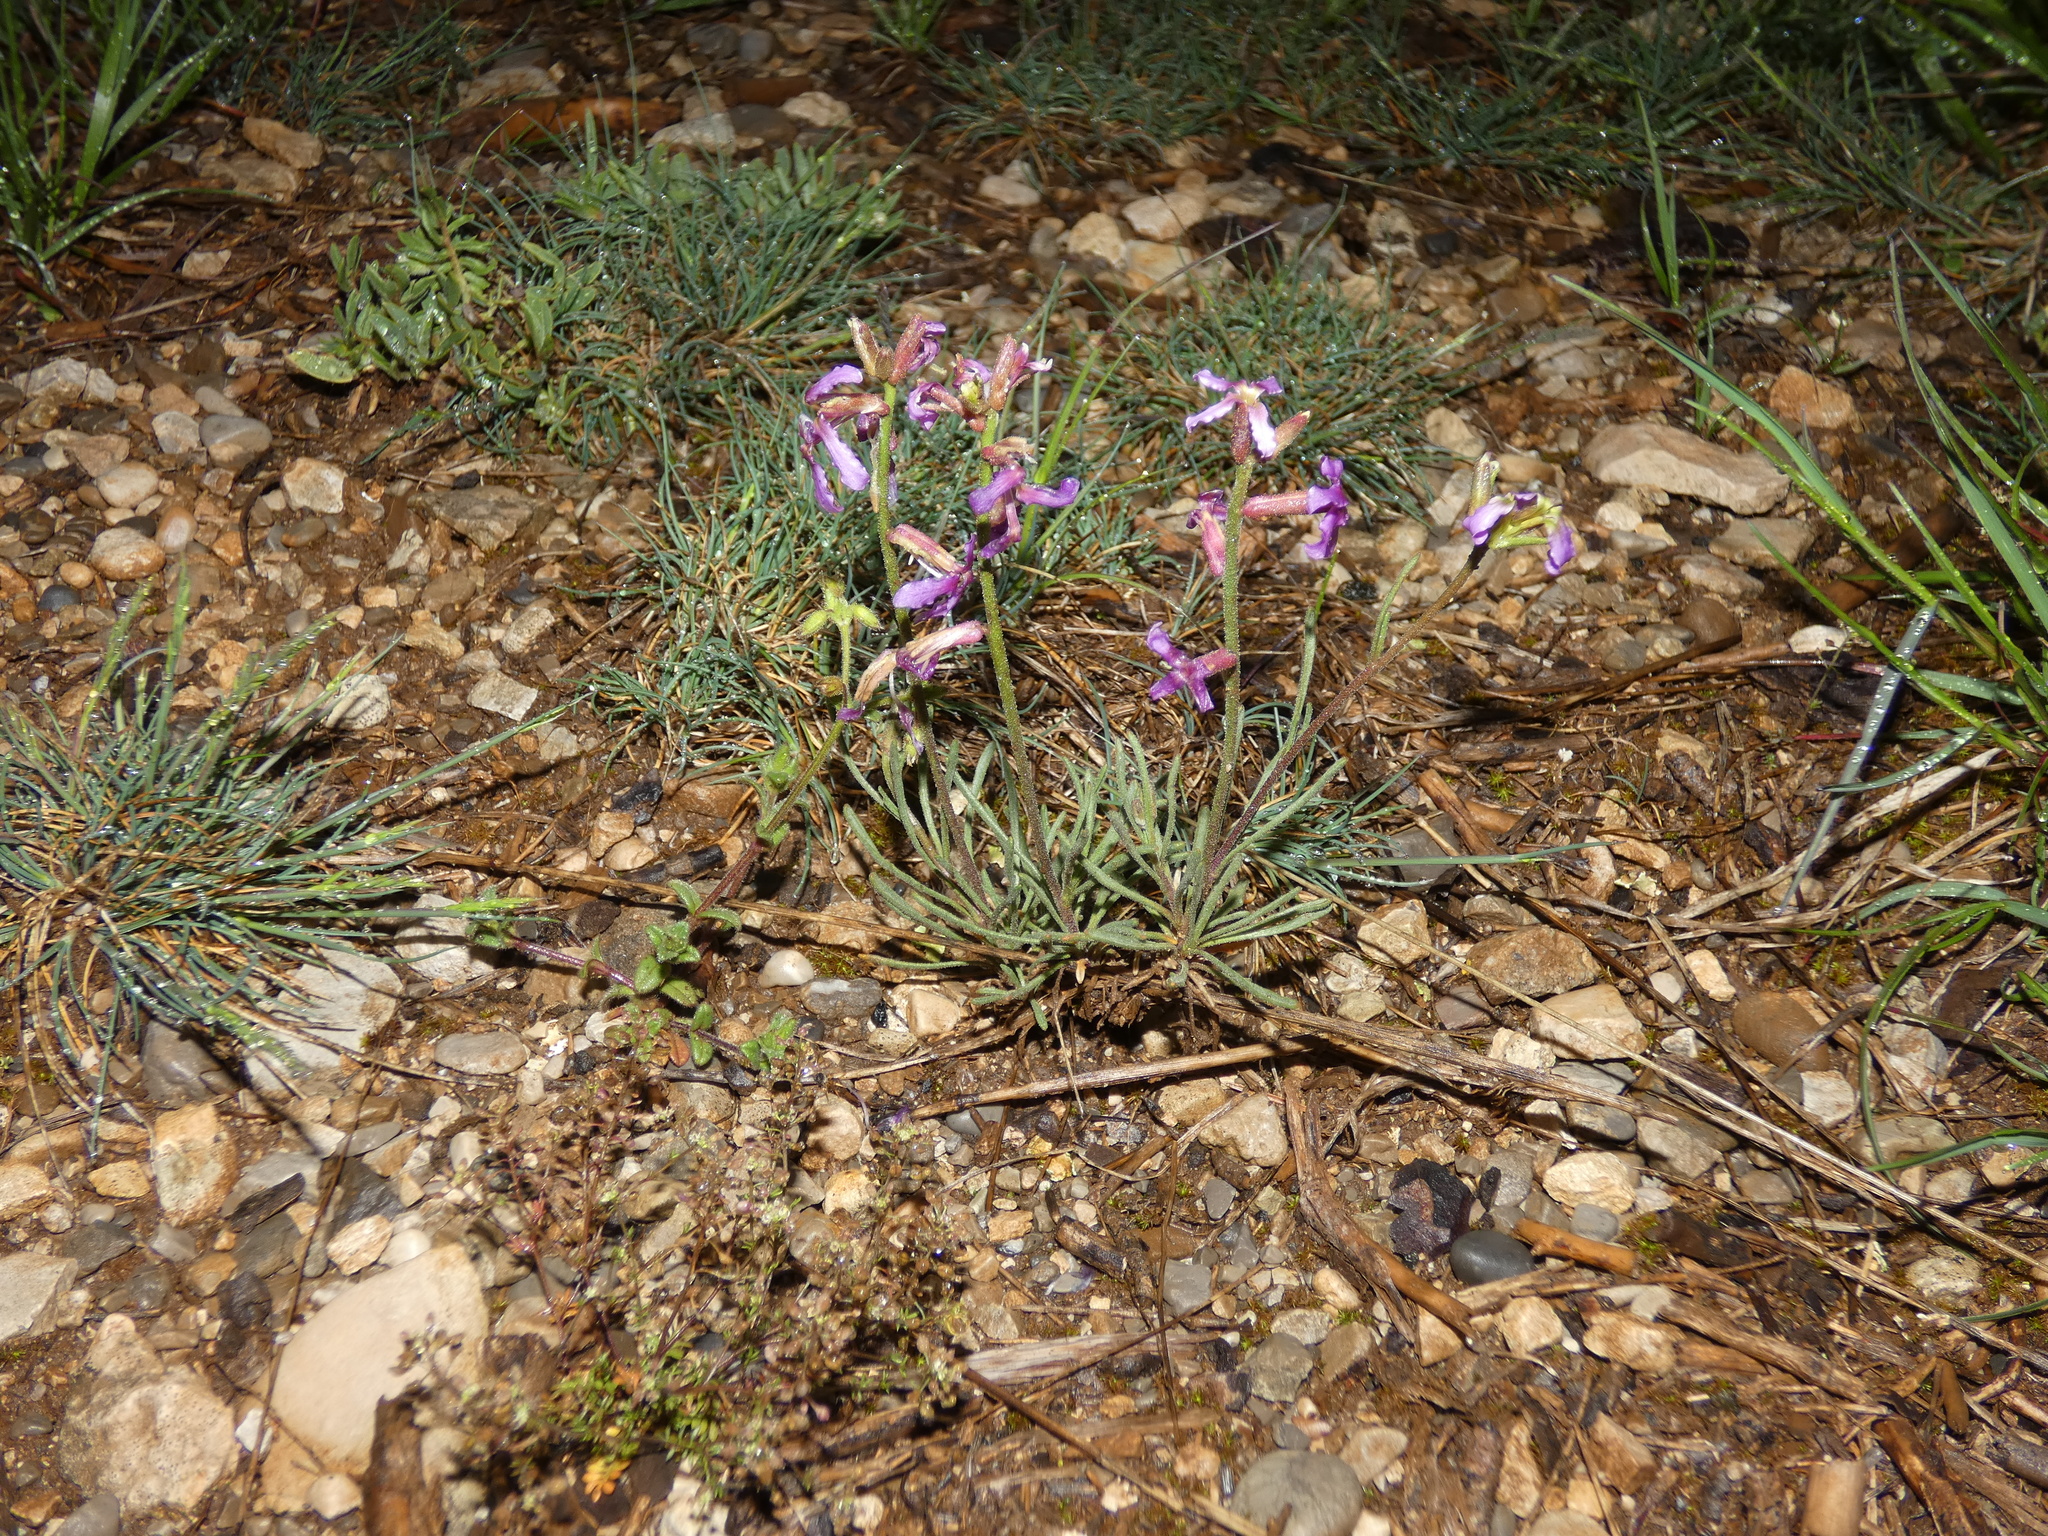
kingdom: Plantae
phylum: Tracheophyta
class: Magnoliopsida
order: Brassicales
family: Brassicaceae
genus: Matthiola
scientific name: Matthiola fruticulosa
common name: Sad stock
